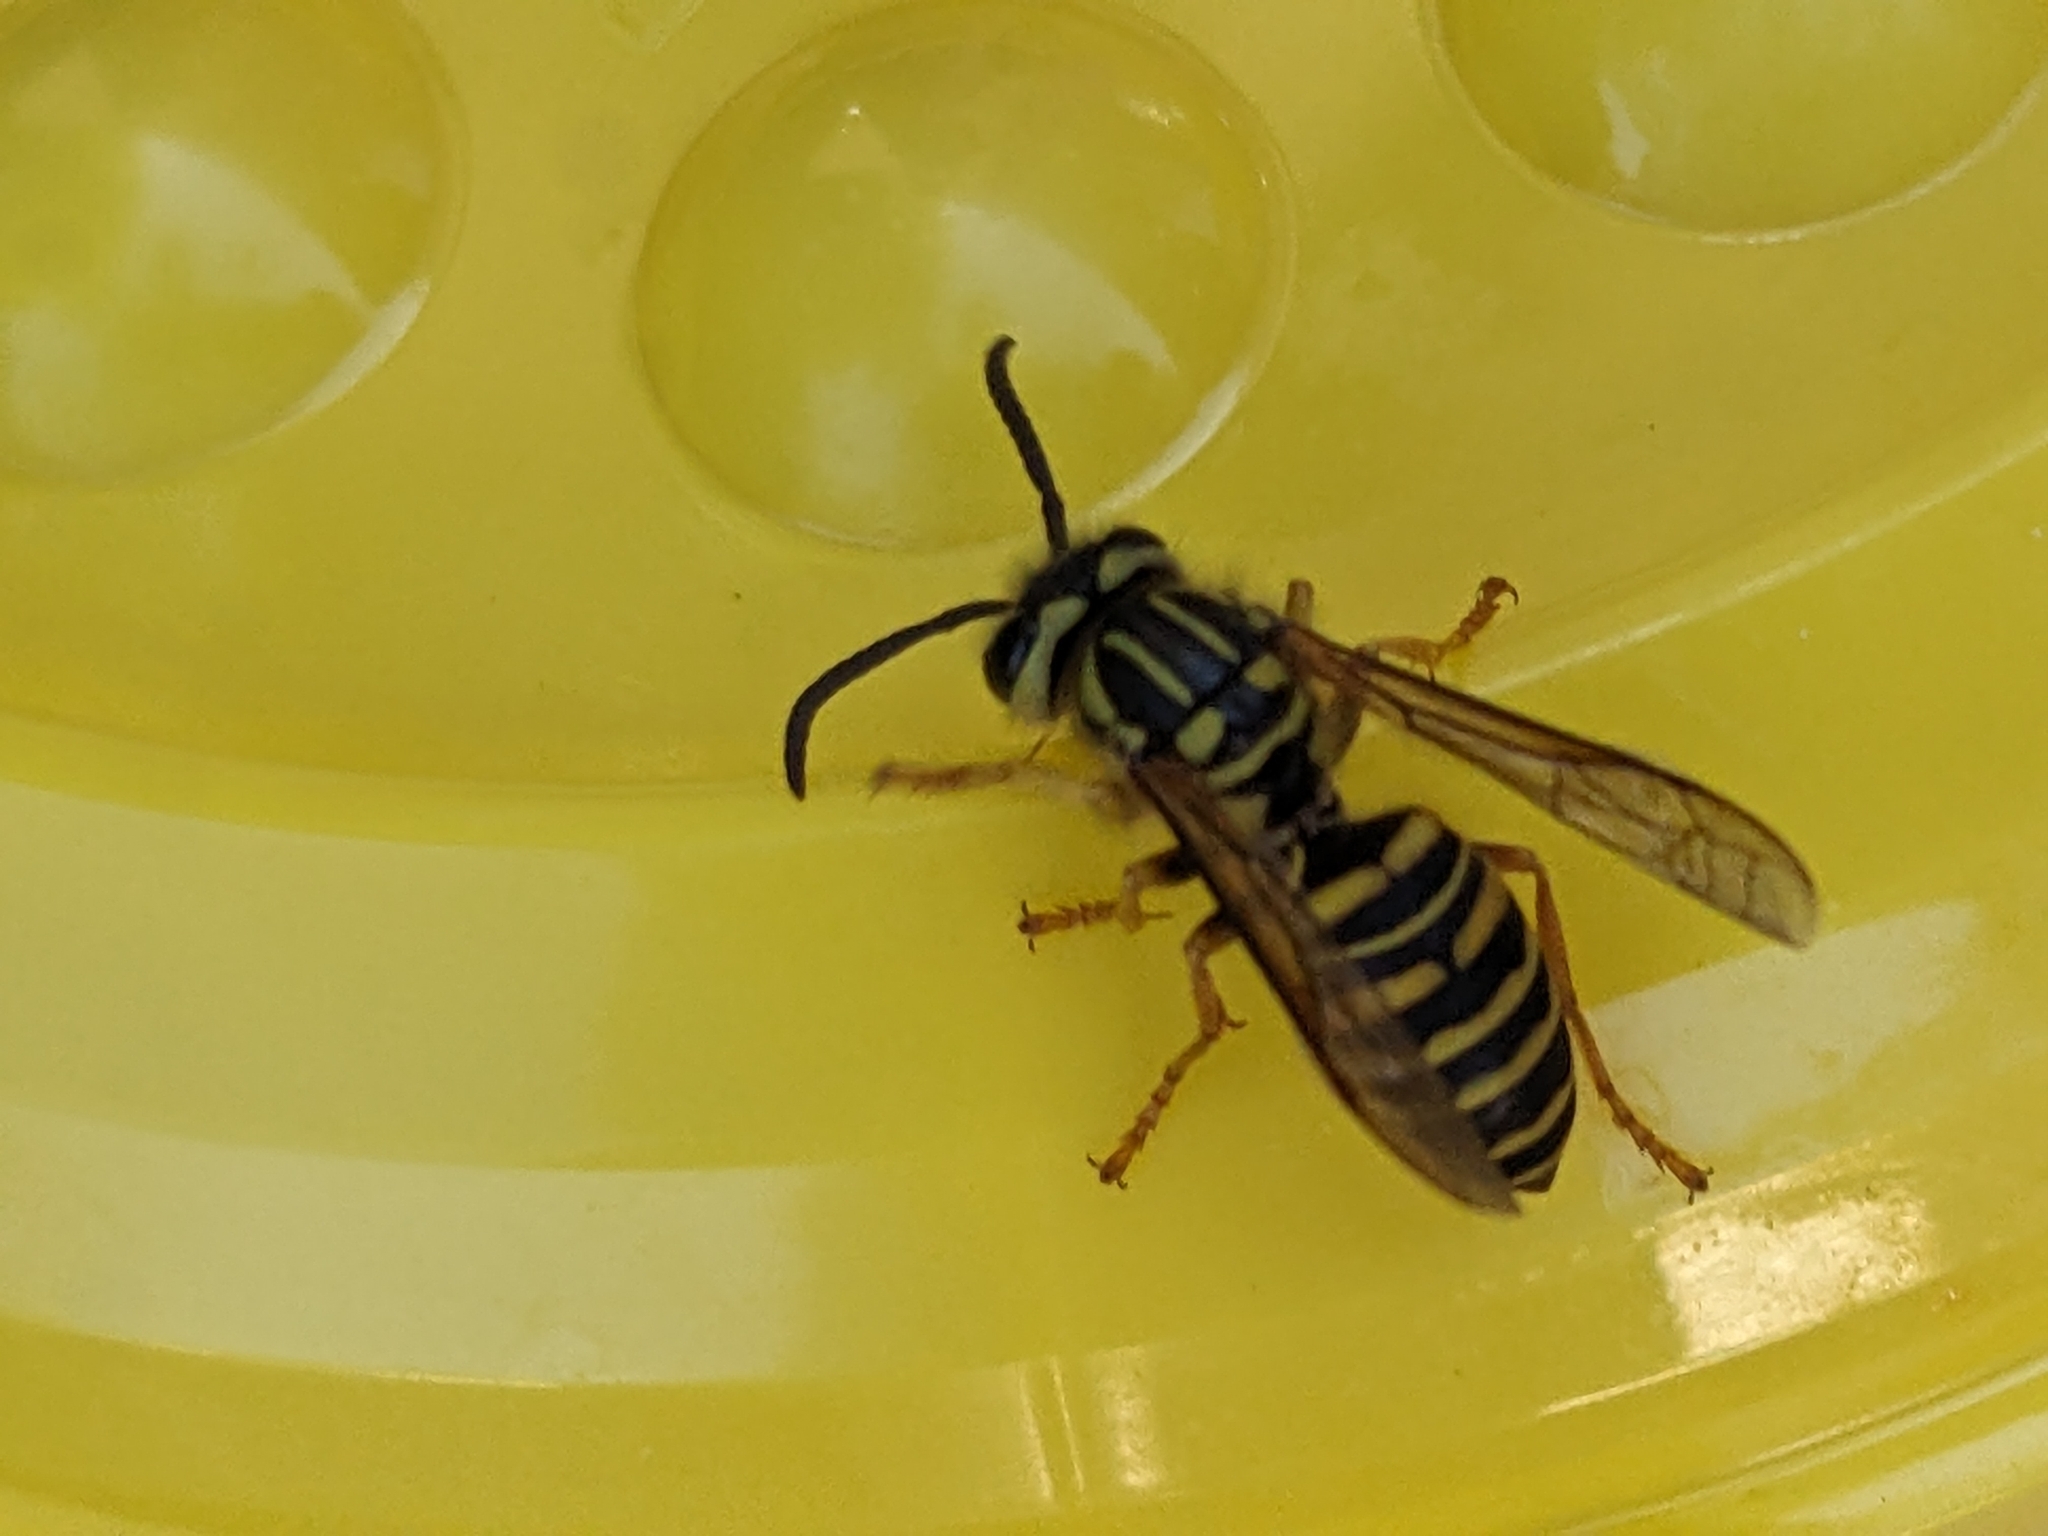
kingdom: Animalia
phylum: Arthropoda
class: Insecta
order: Hymenoptera
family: Vespidae
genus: Vespula
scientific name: Vespula squamosa
